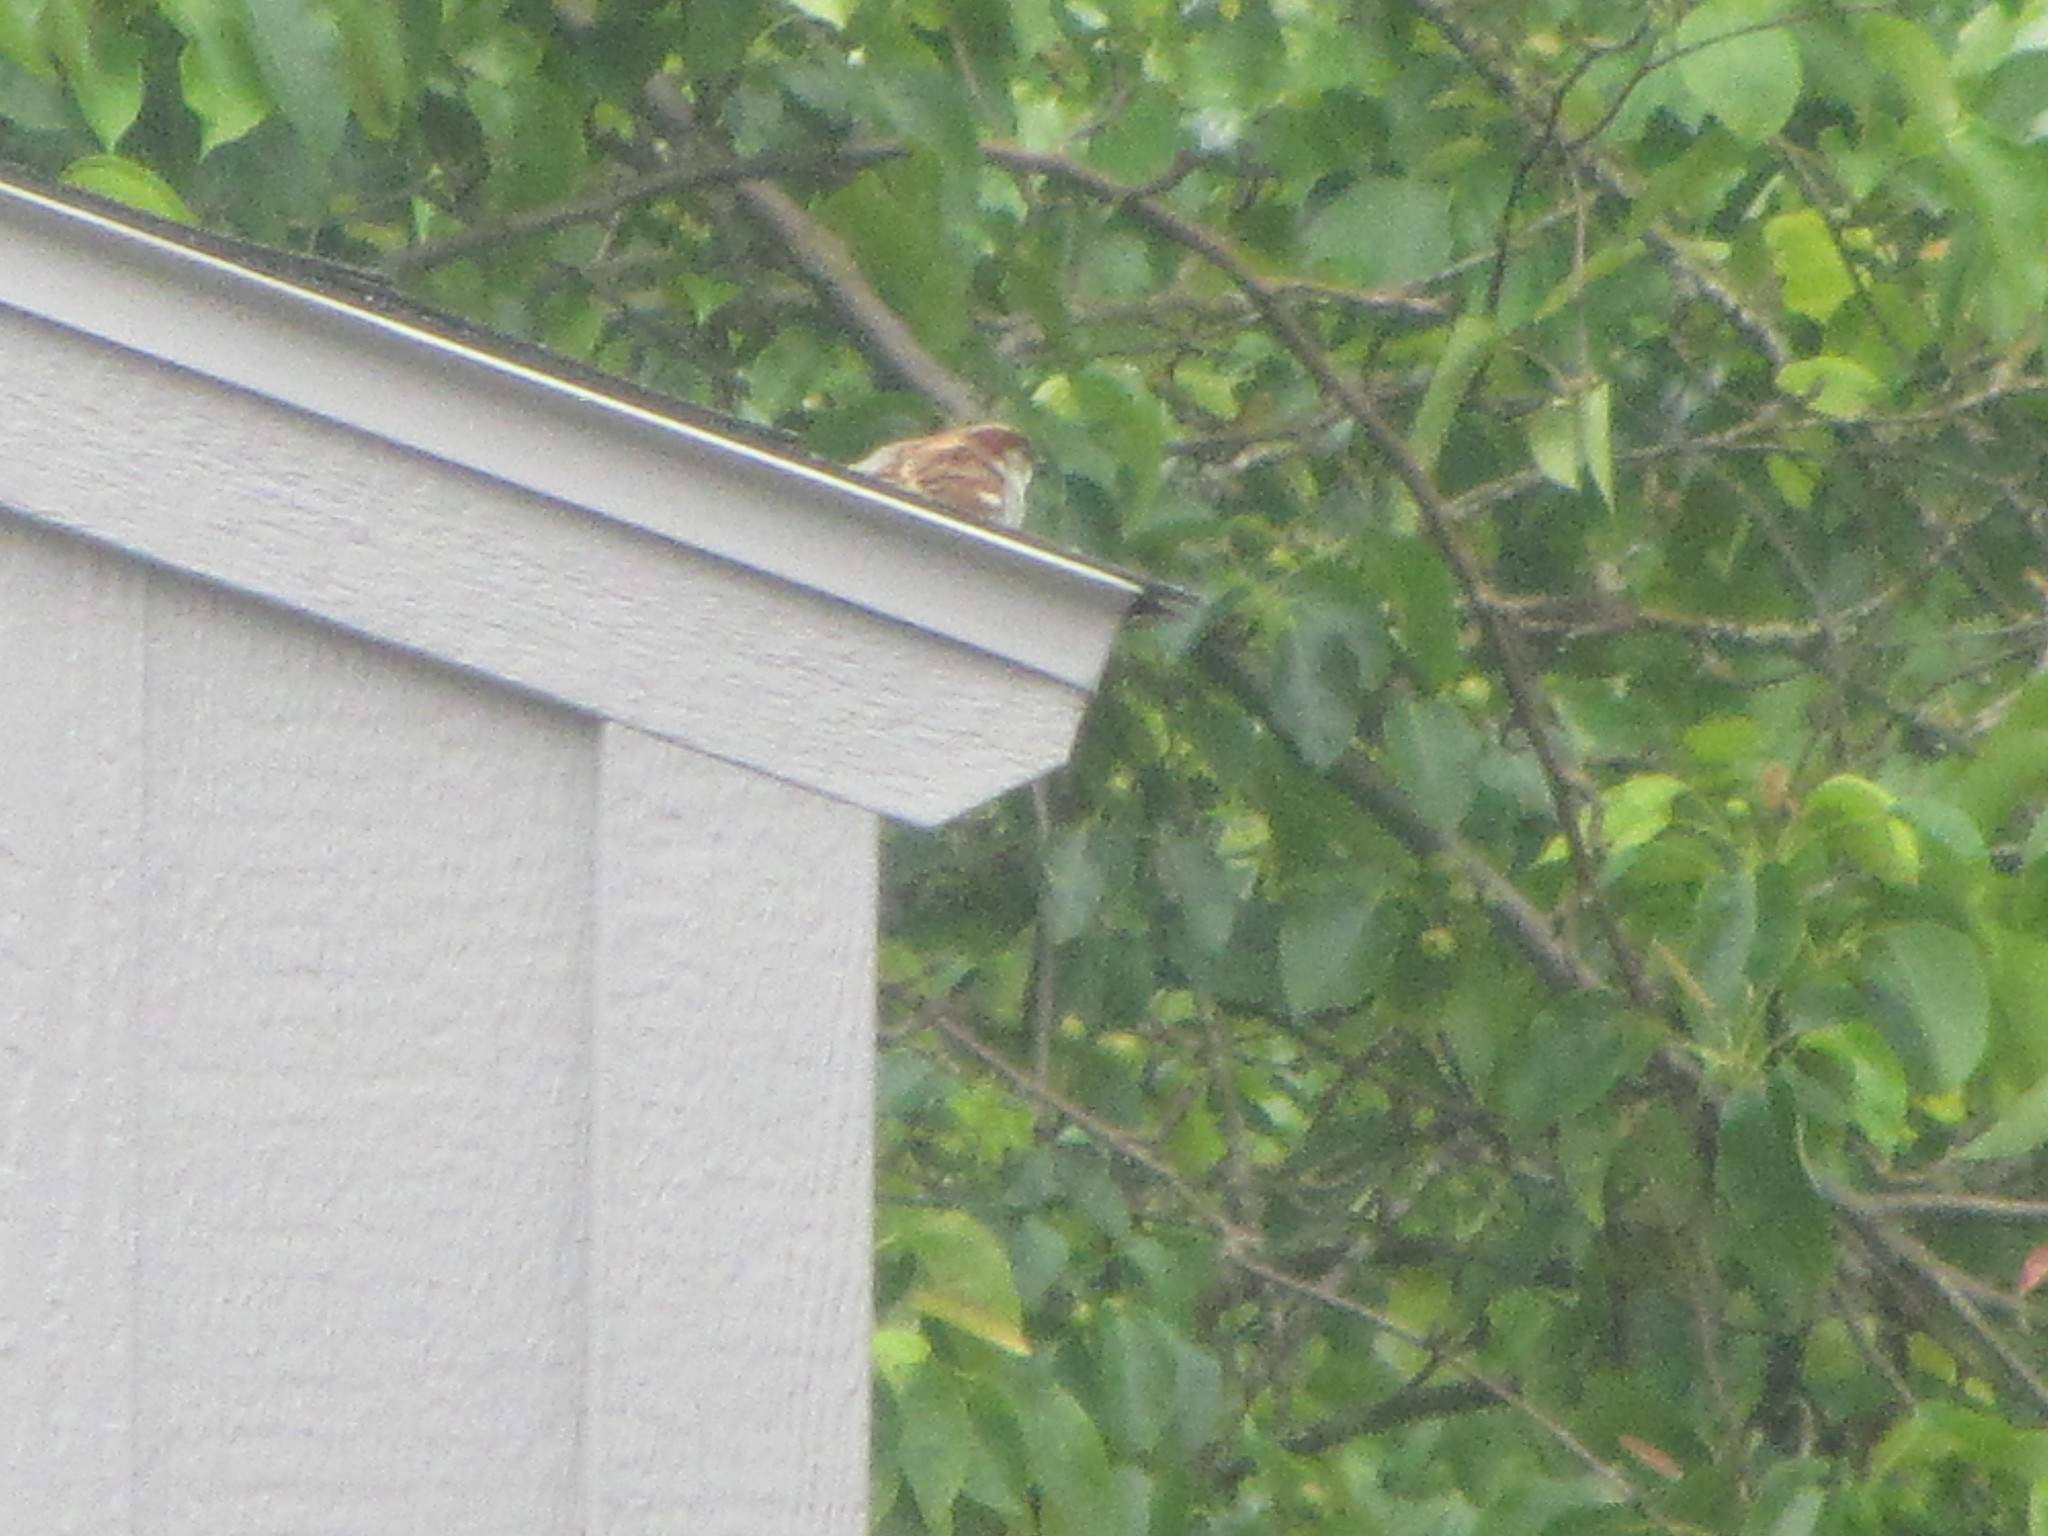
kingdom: Animalia
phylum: Chordata
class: Aves
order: Passeriformes
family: Passeridae
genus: Passer
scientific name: Passer domesticus
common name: House sparrow
